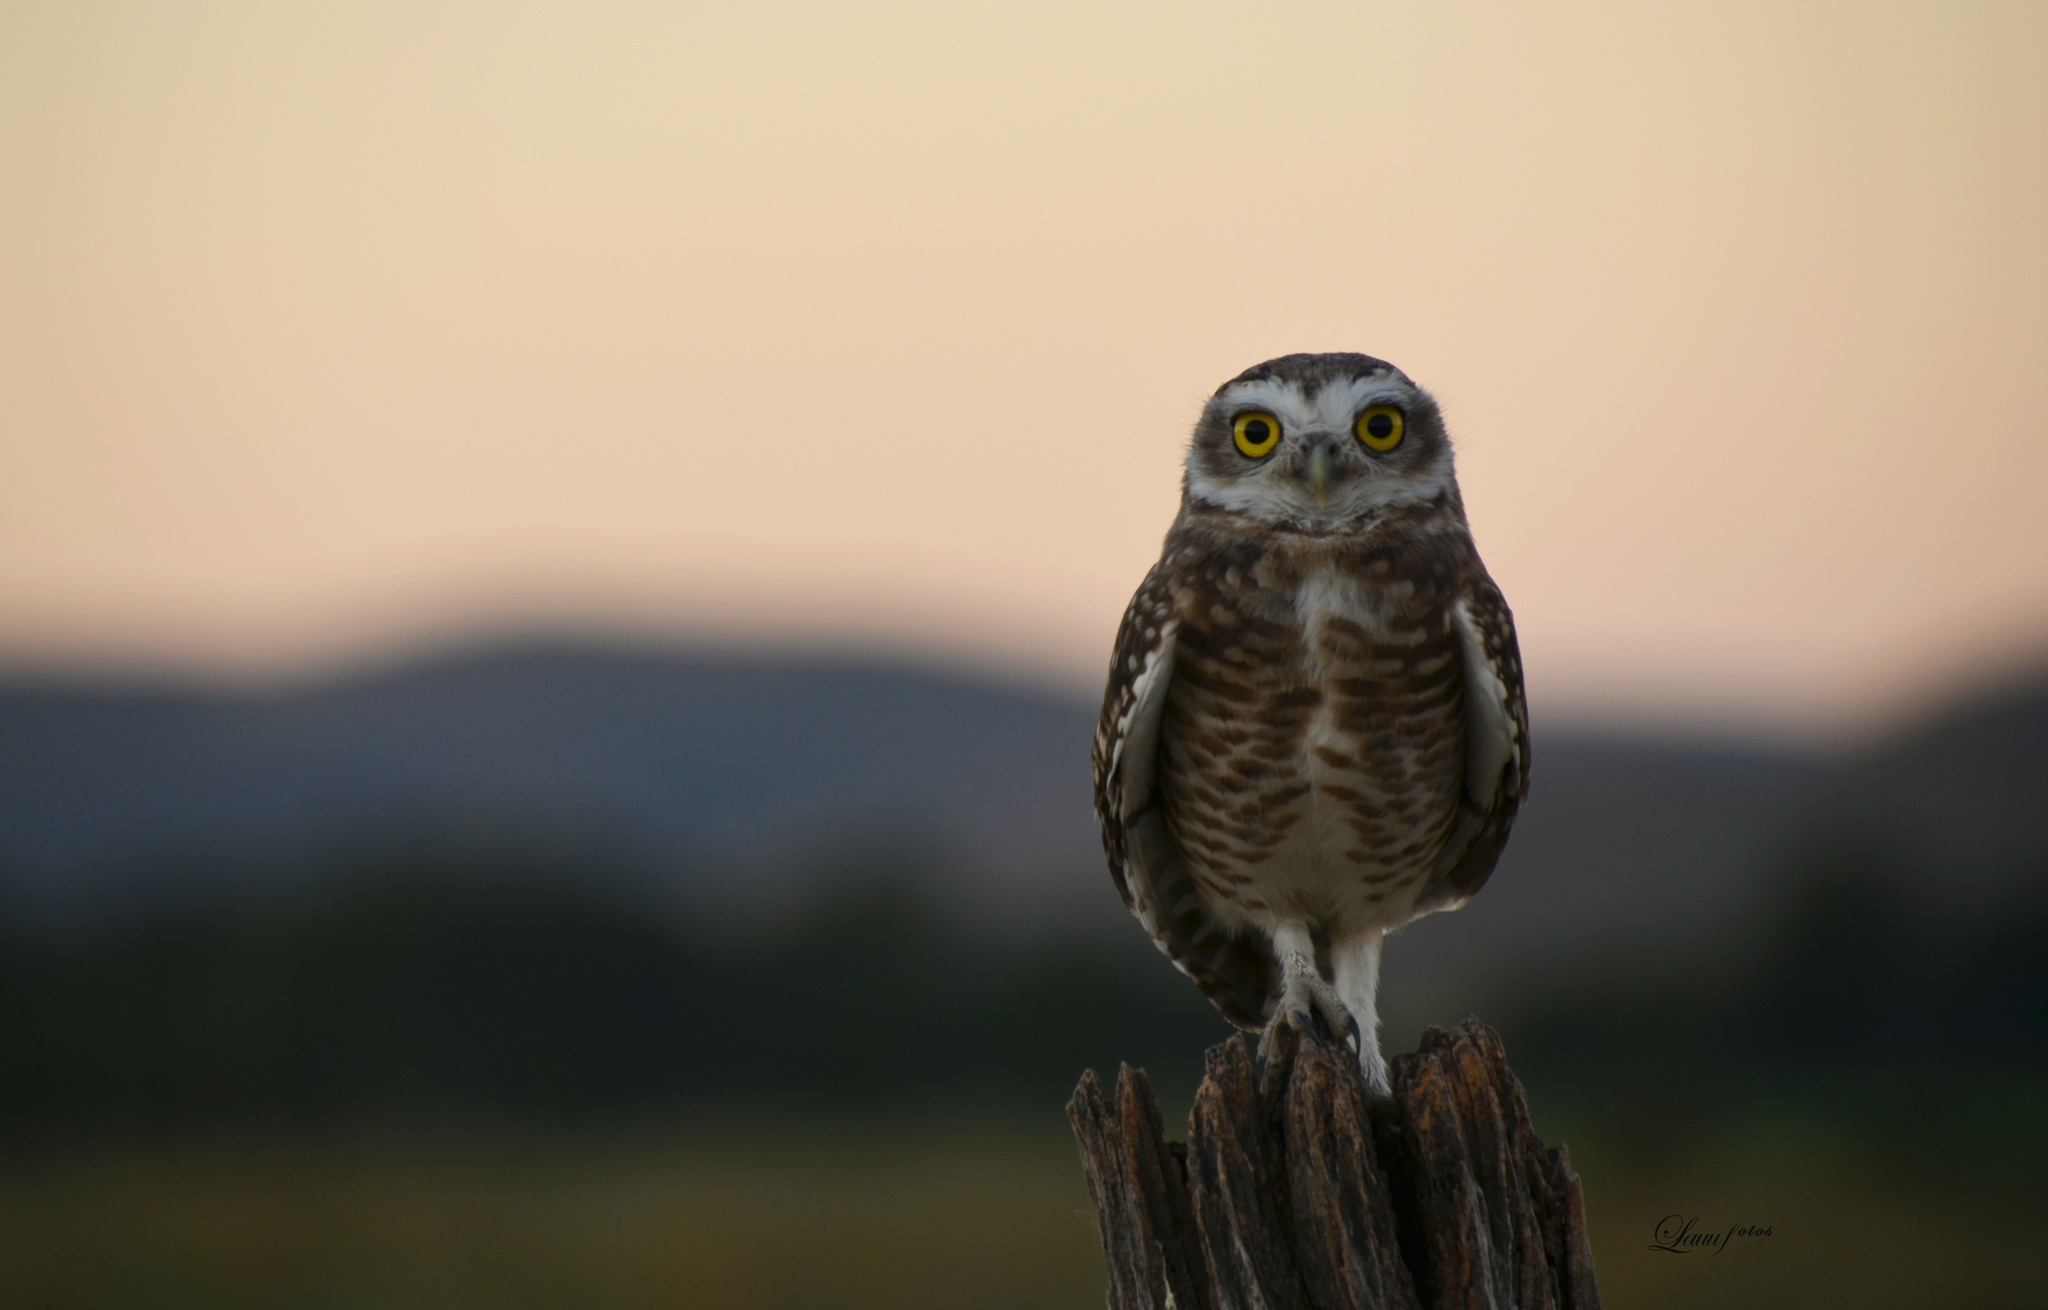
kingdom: Animalia
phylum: Chordata
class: Aves
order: Strigiformes
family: Strigidae
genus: Athene
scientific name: Athene cunicularia
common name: Burrowing owl
